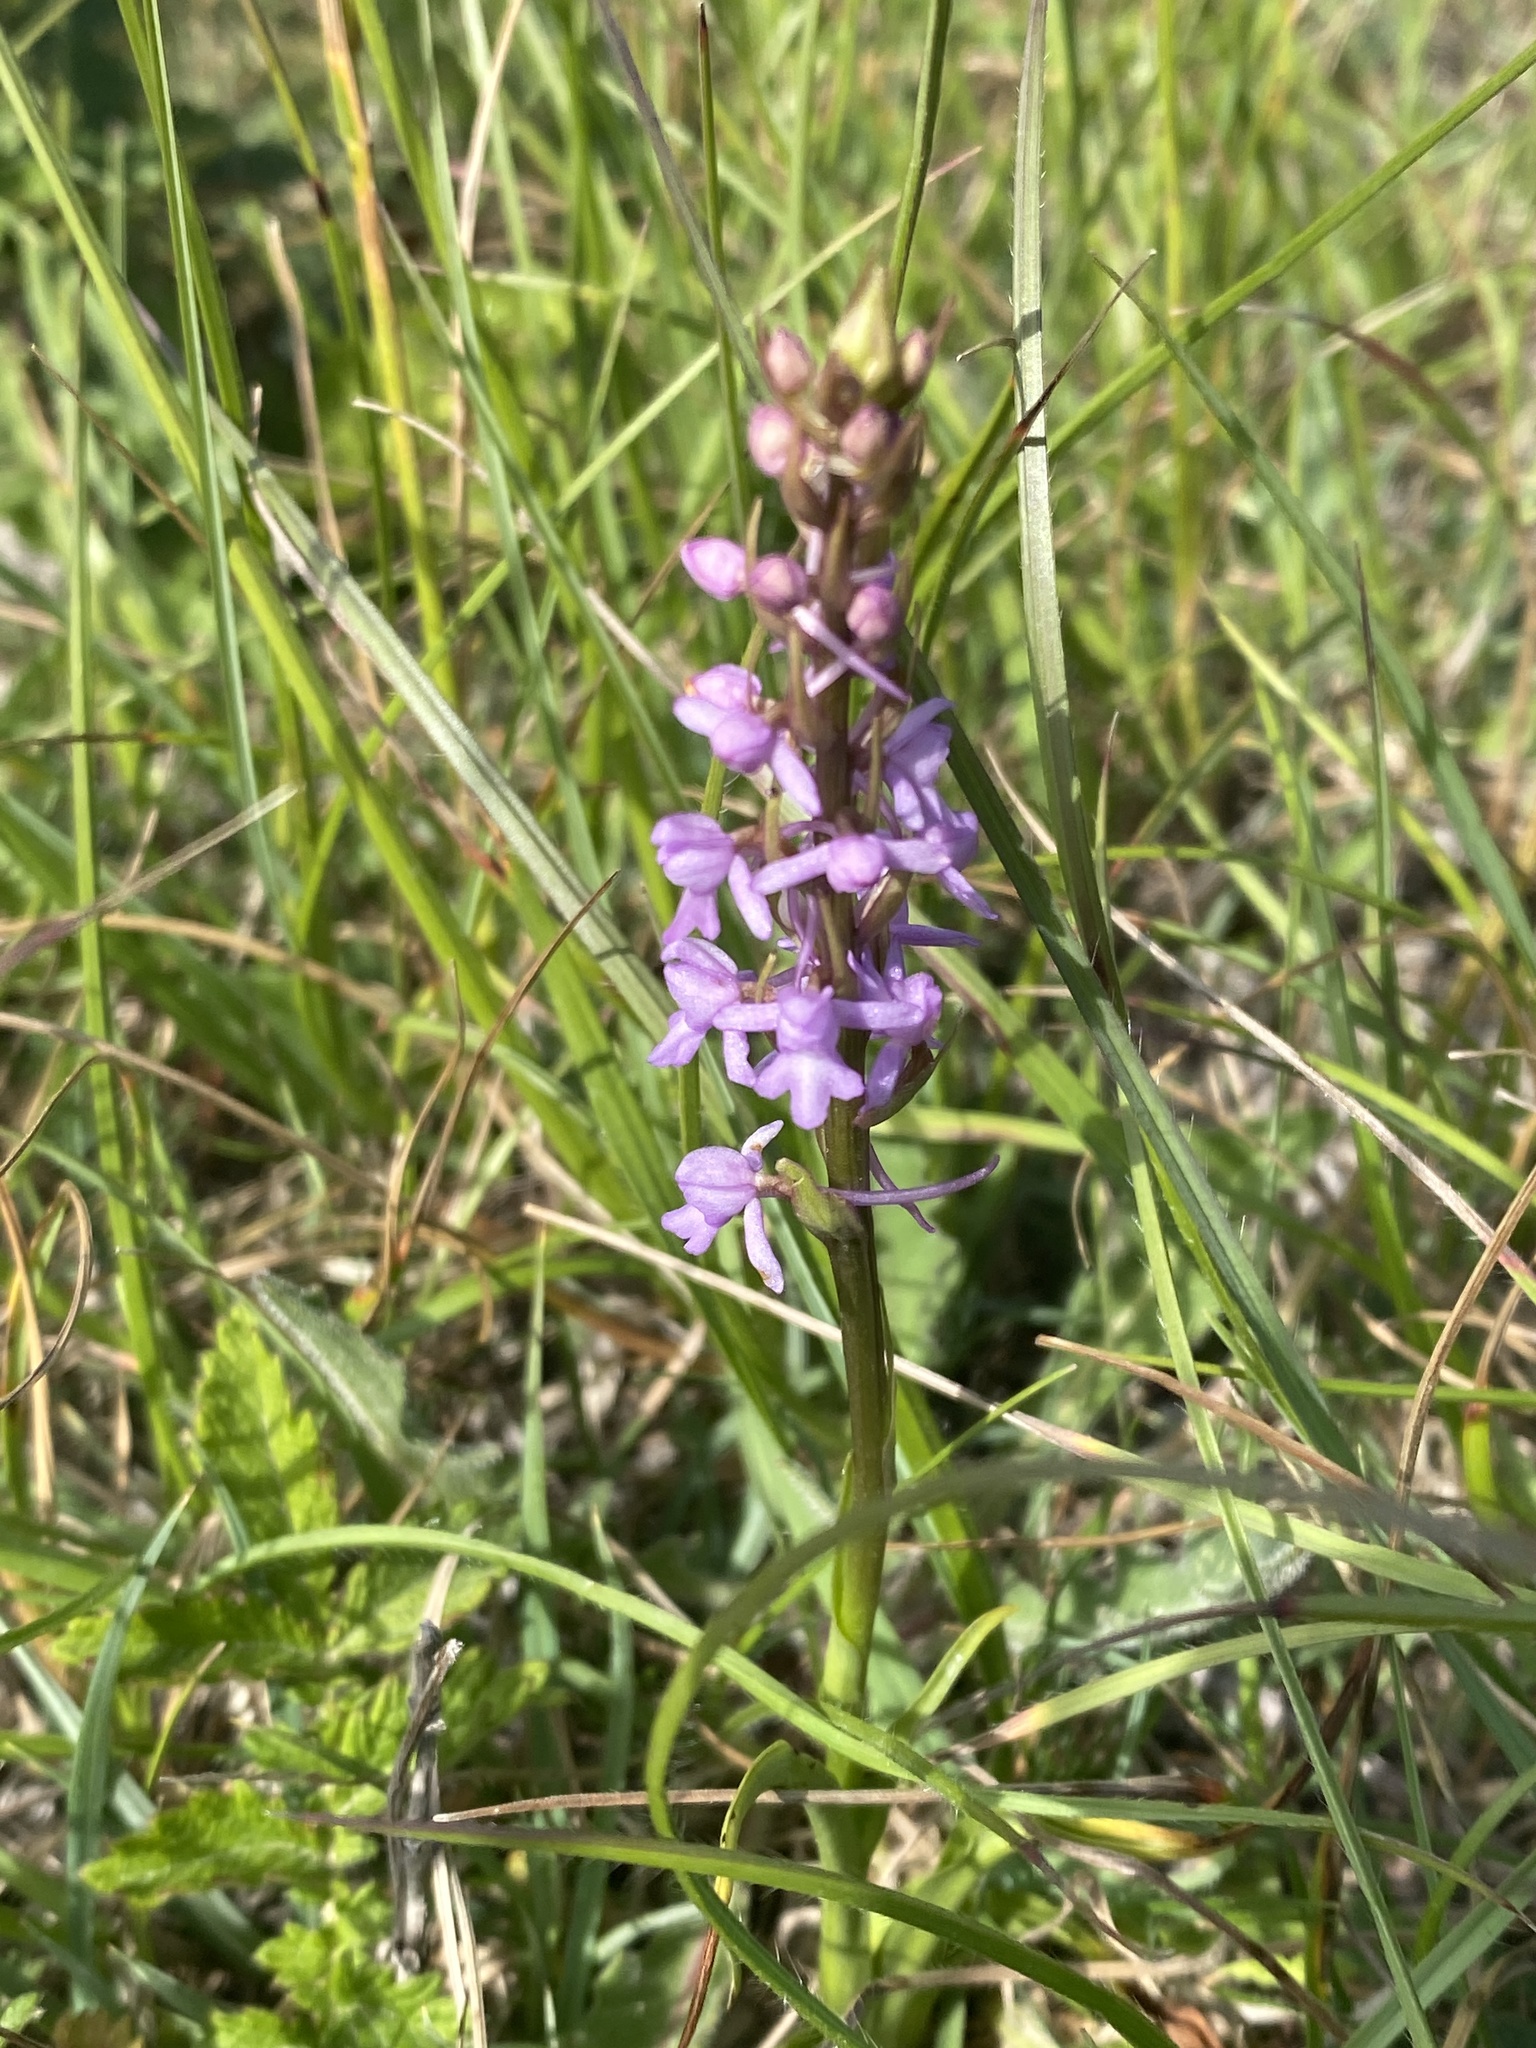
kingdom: Plantae
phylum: Tracheophyta
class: Liliopsida
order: Asparagales
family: Orchidaceae
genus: Gymnadenia
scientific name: Gymnadenia conopsea
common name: Fragrant orchid
